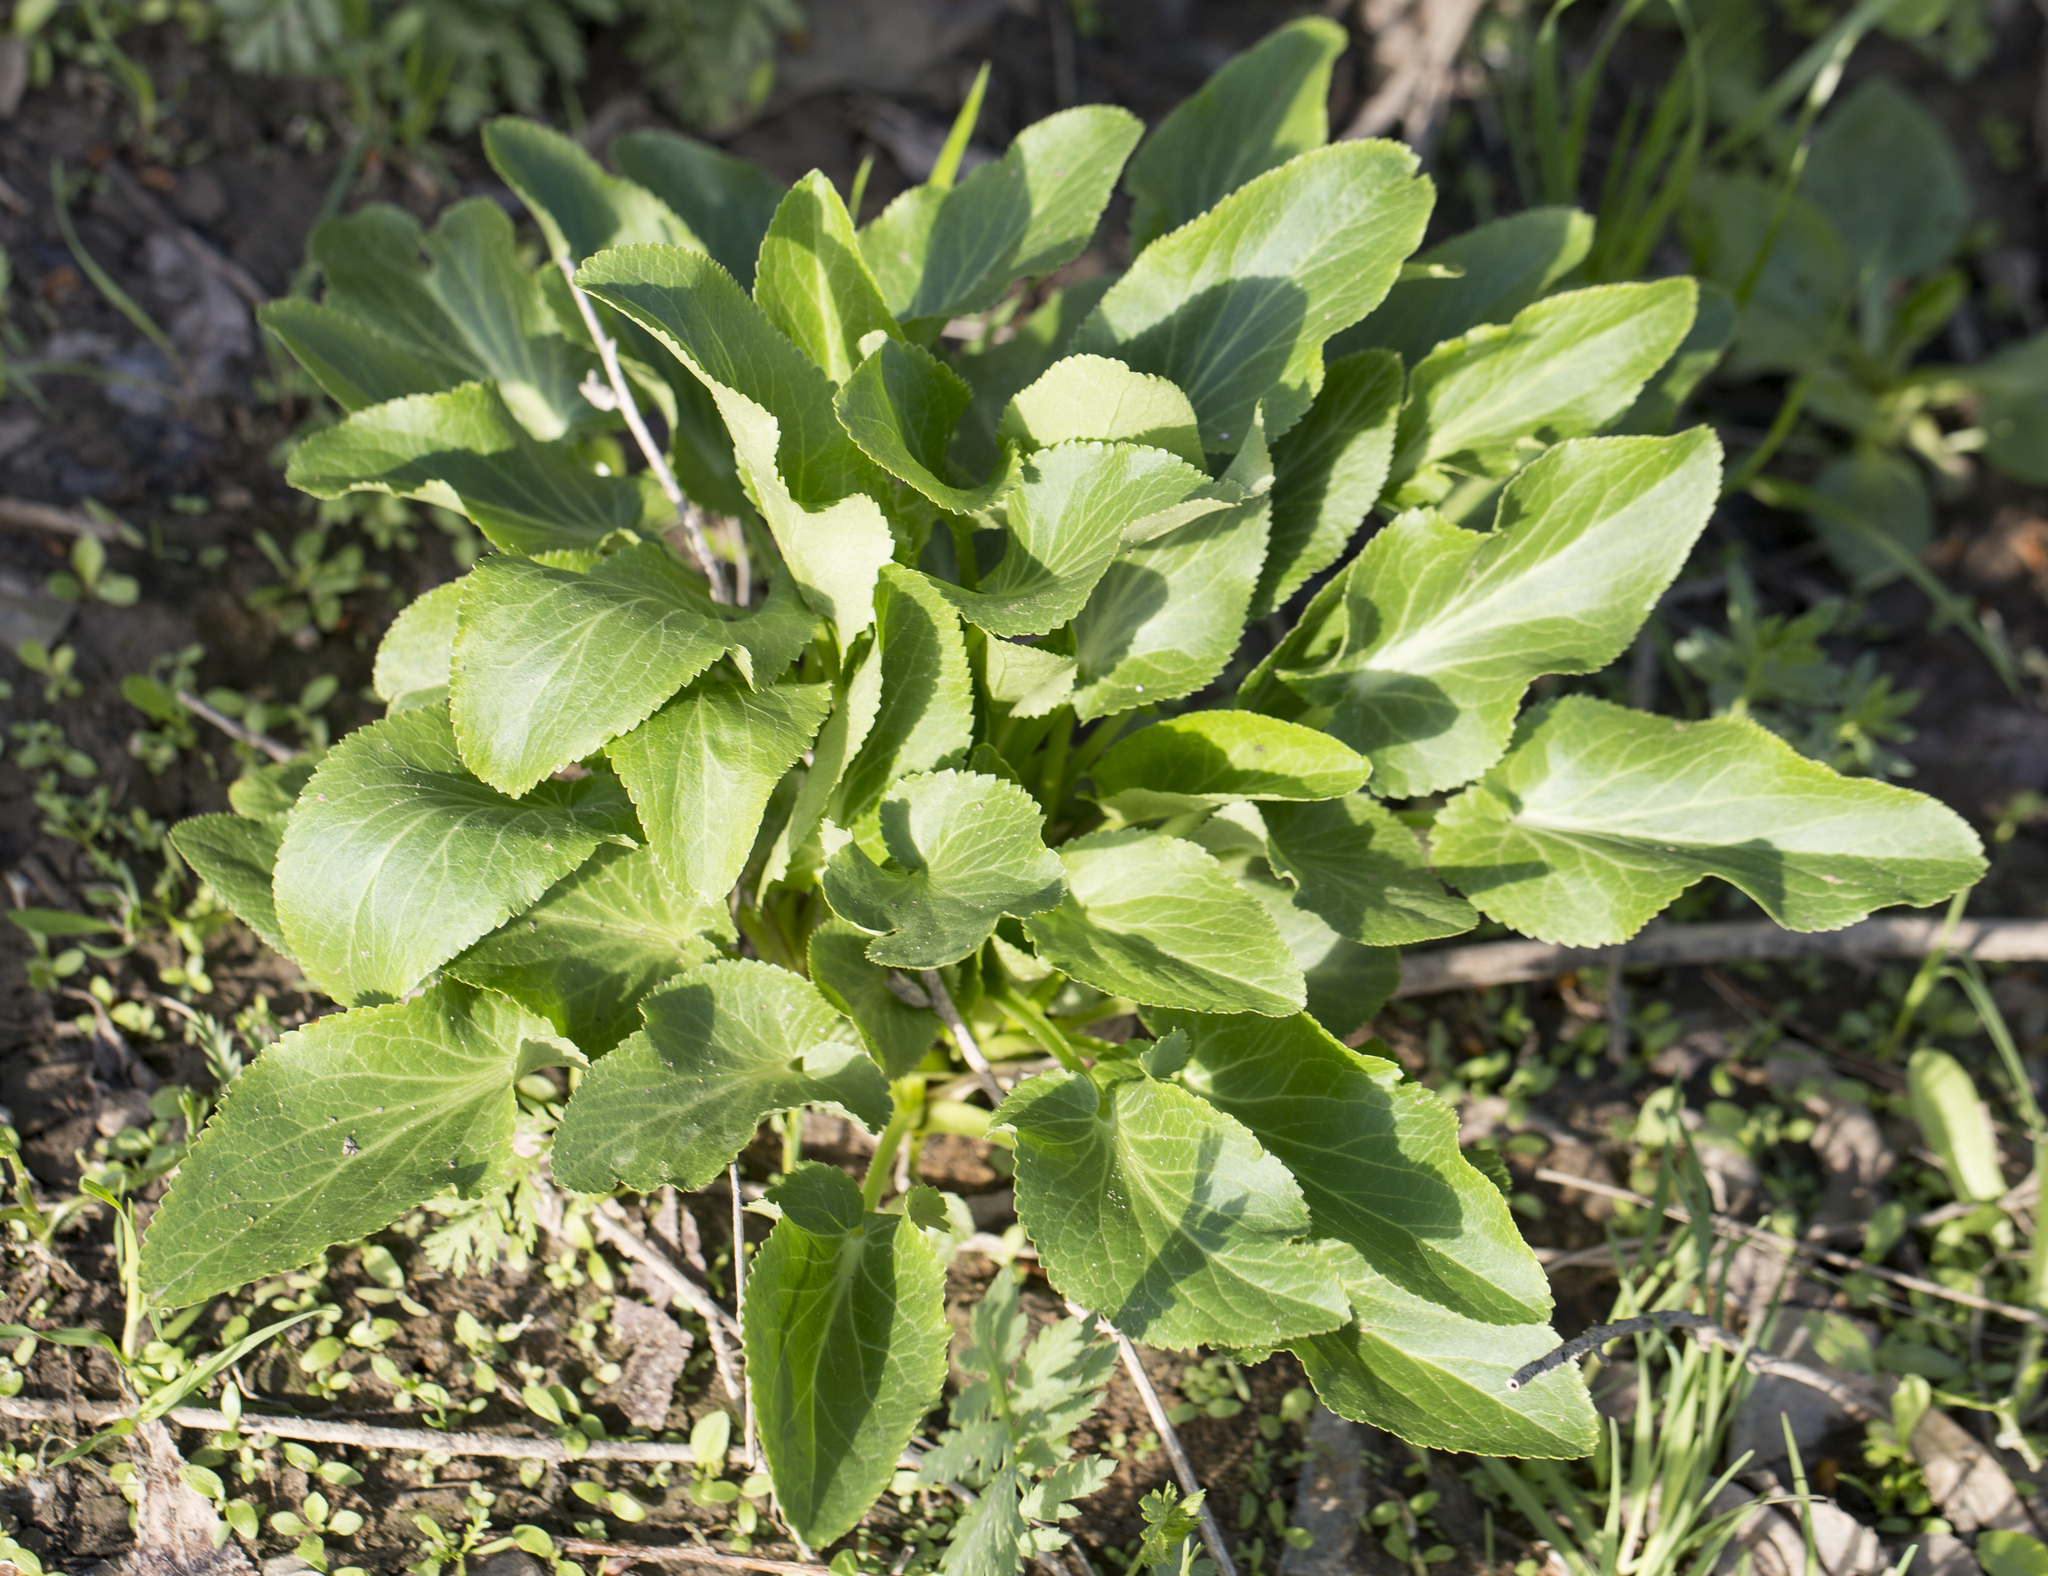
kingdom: Plantae
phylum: Tracheophyta
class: Magnoliopsida
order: Apiales
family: Apiaceae
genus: Eryngium
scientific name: Eryngium planum
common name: Blue eryngo
